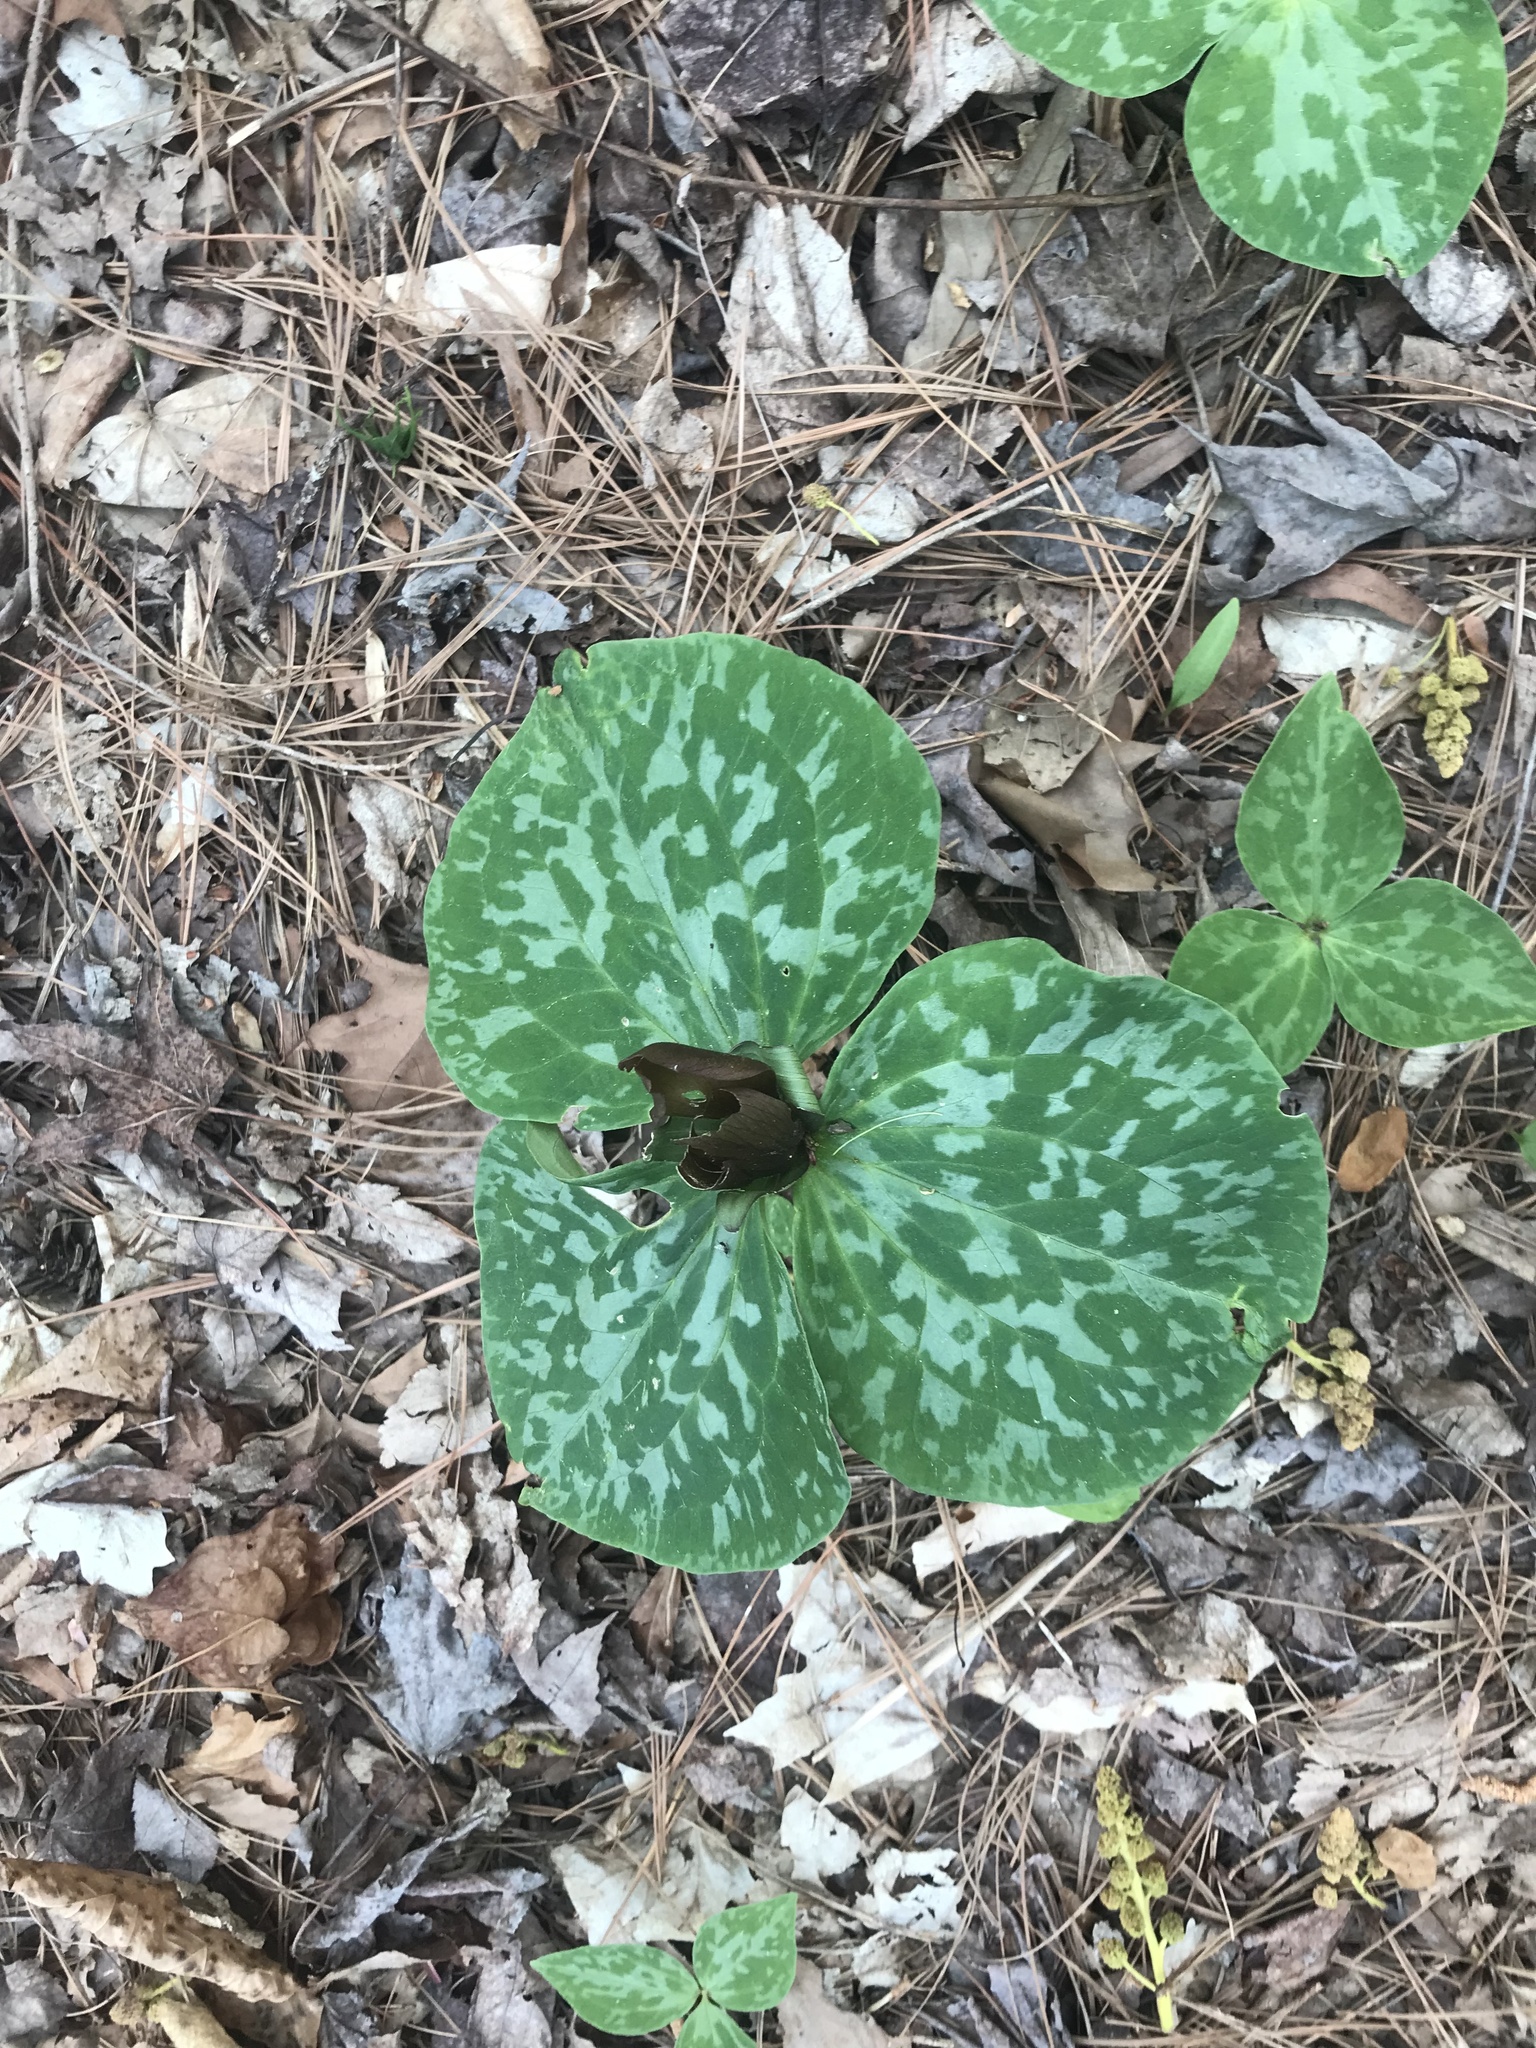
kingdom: Plantae
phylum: Tracheophyta
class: Liliopsida
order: Liliales
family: Melanthiaceae
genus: Trillium
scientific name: Trillium cuneatum
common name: Cuneate trillium
